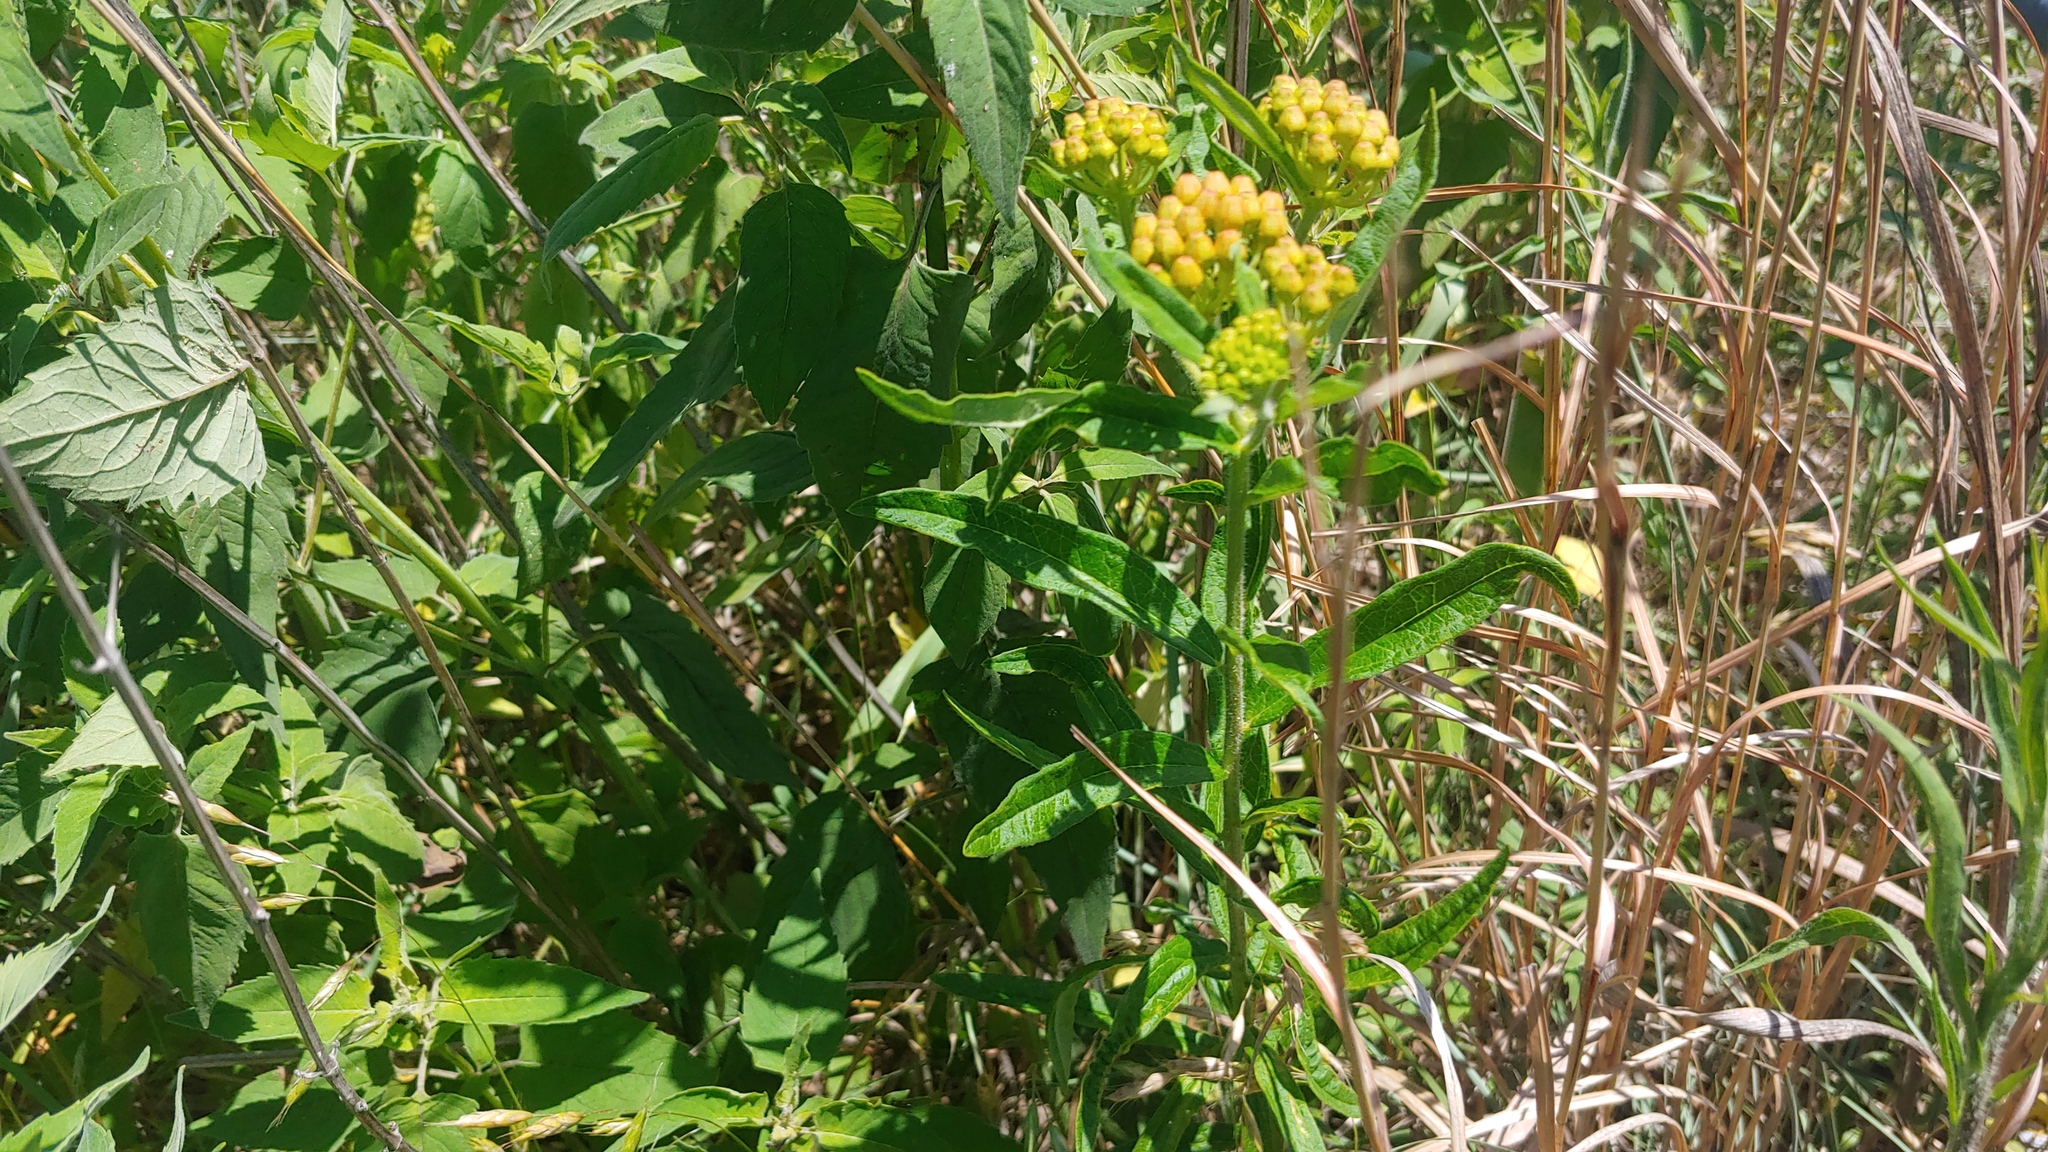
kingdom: Plantae
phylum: Tracheophyta
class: Magnoliopsida
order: Gentianales
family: Apocynaceae
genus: Asclepias
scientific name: Asclepias tuberosa
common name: Butterfly milkweed
